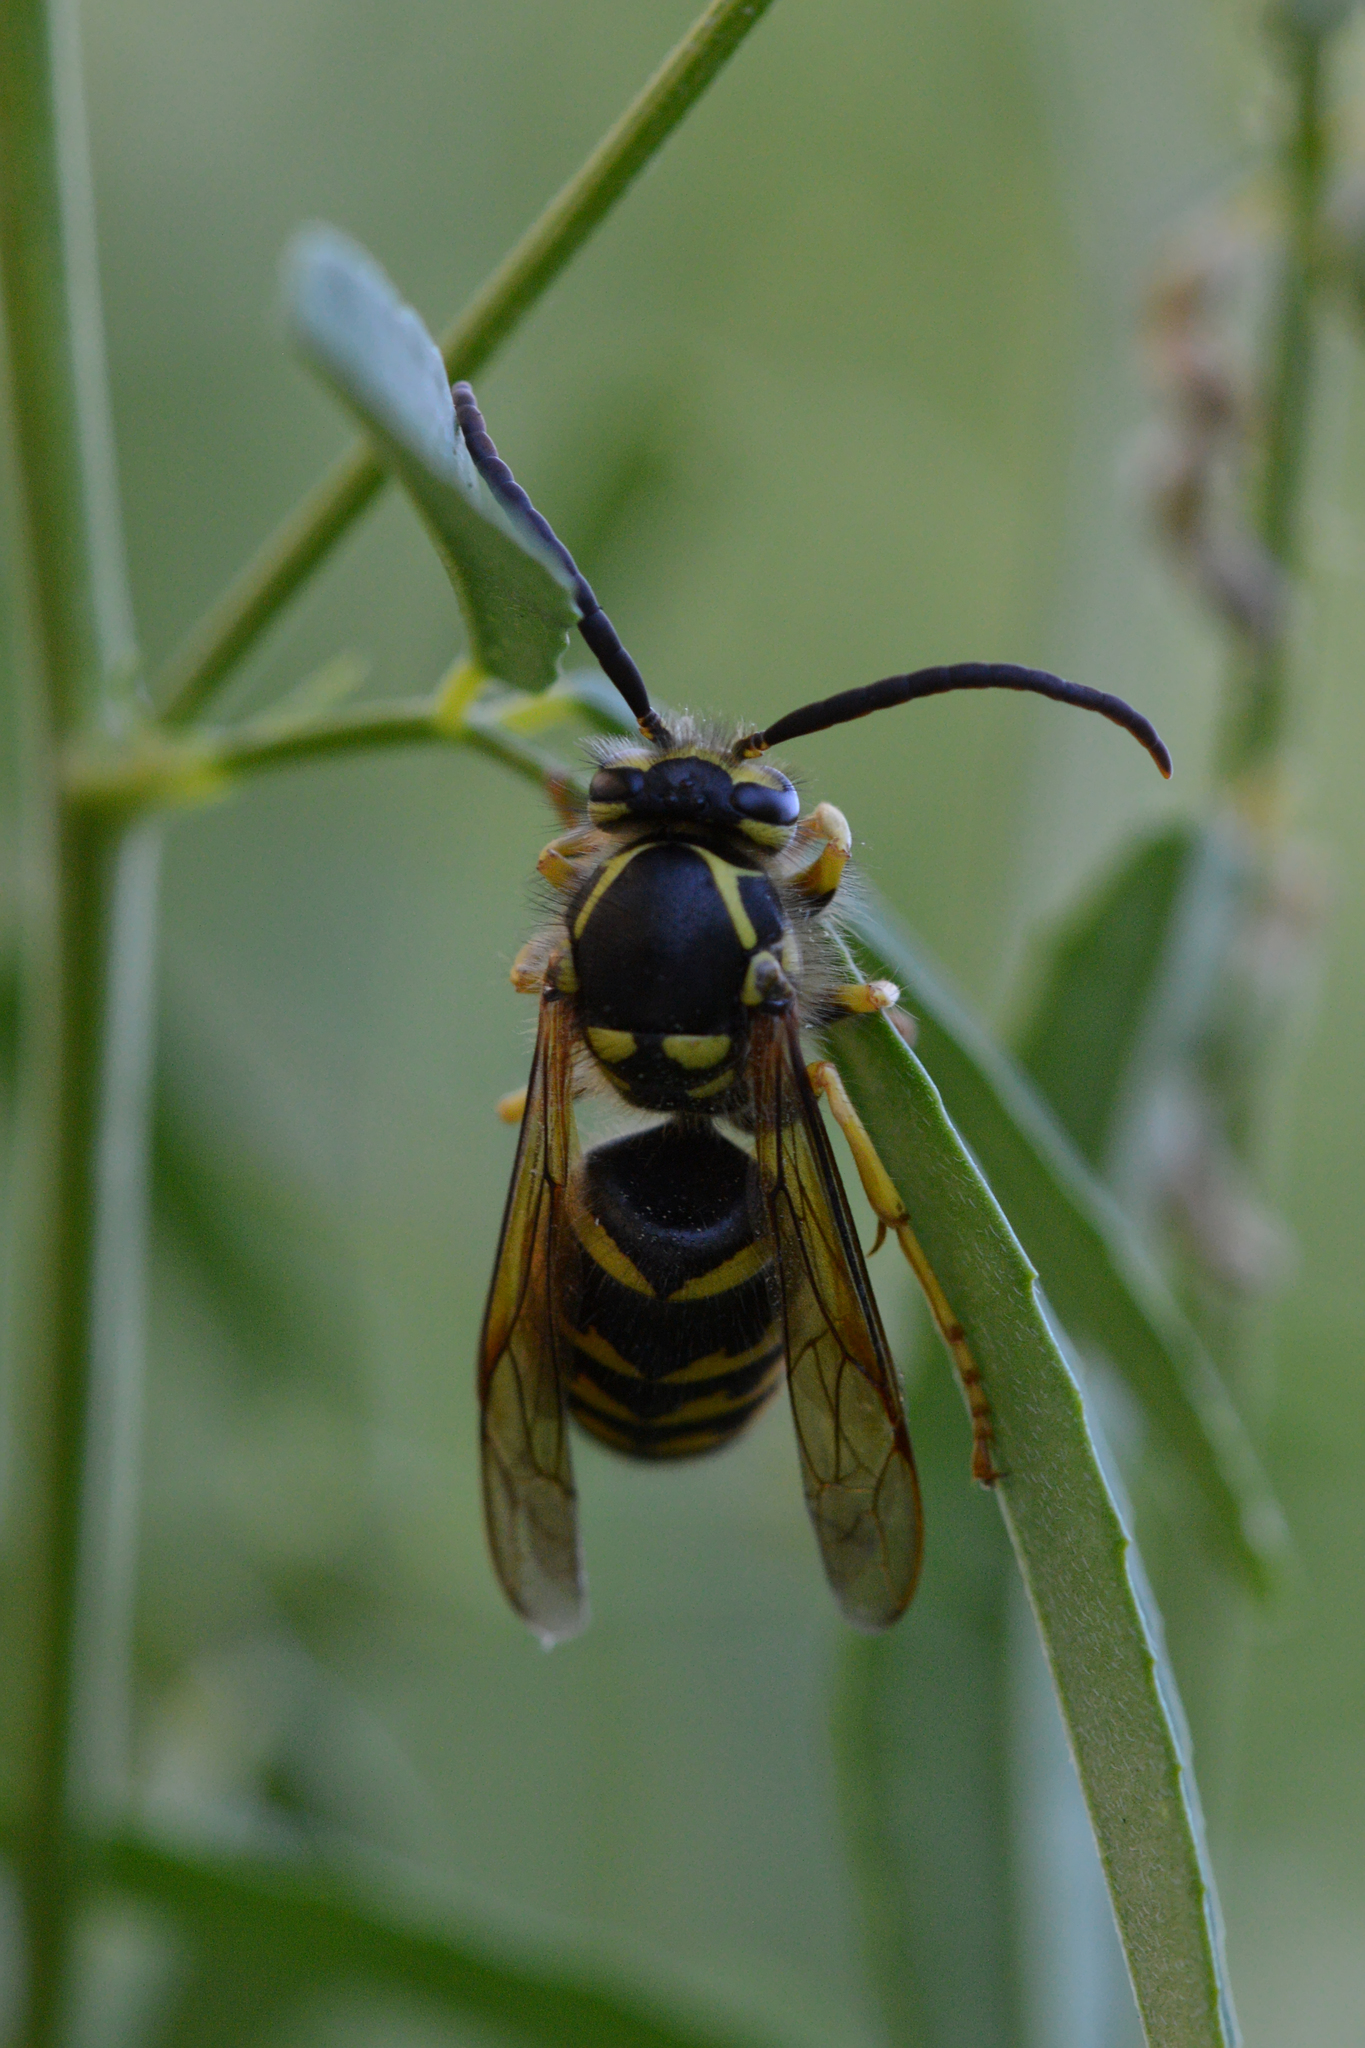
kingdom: Animalia
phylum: Arthropoda
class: Insecta
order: Hymenoptera
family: Vespidae
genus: Dolichovespula
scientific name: Dolichovespula arenaria
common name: Aerial yellowjacket
